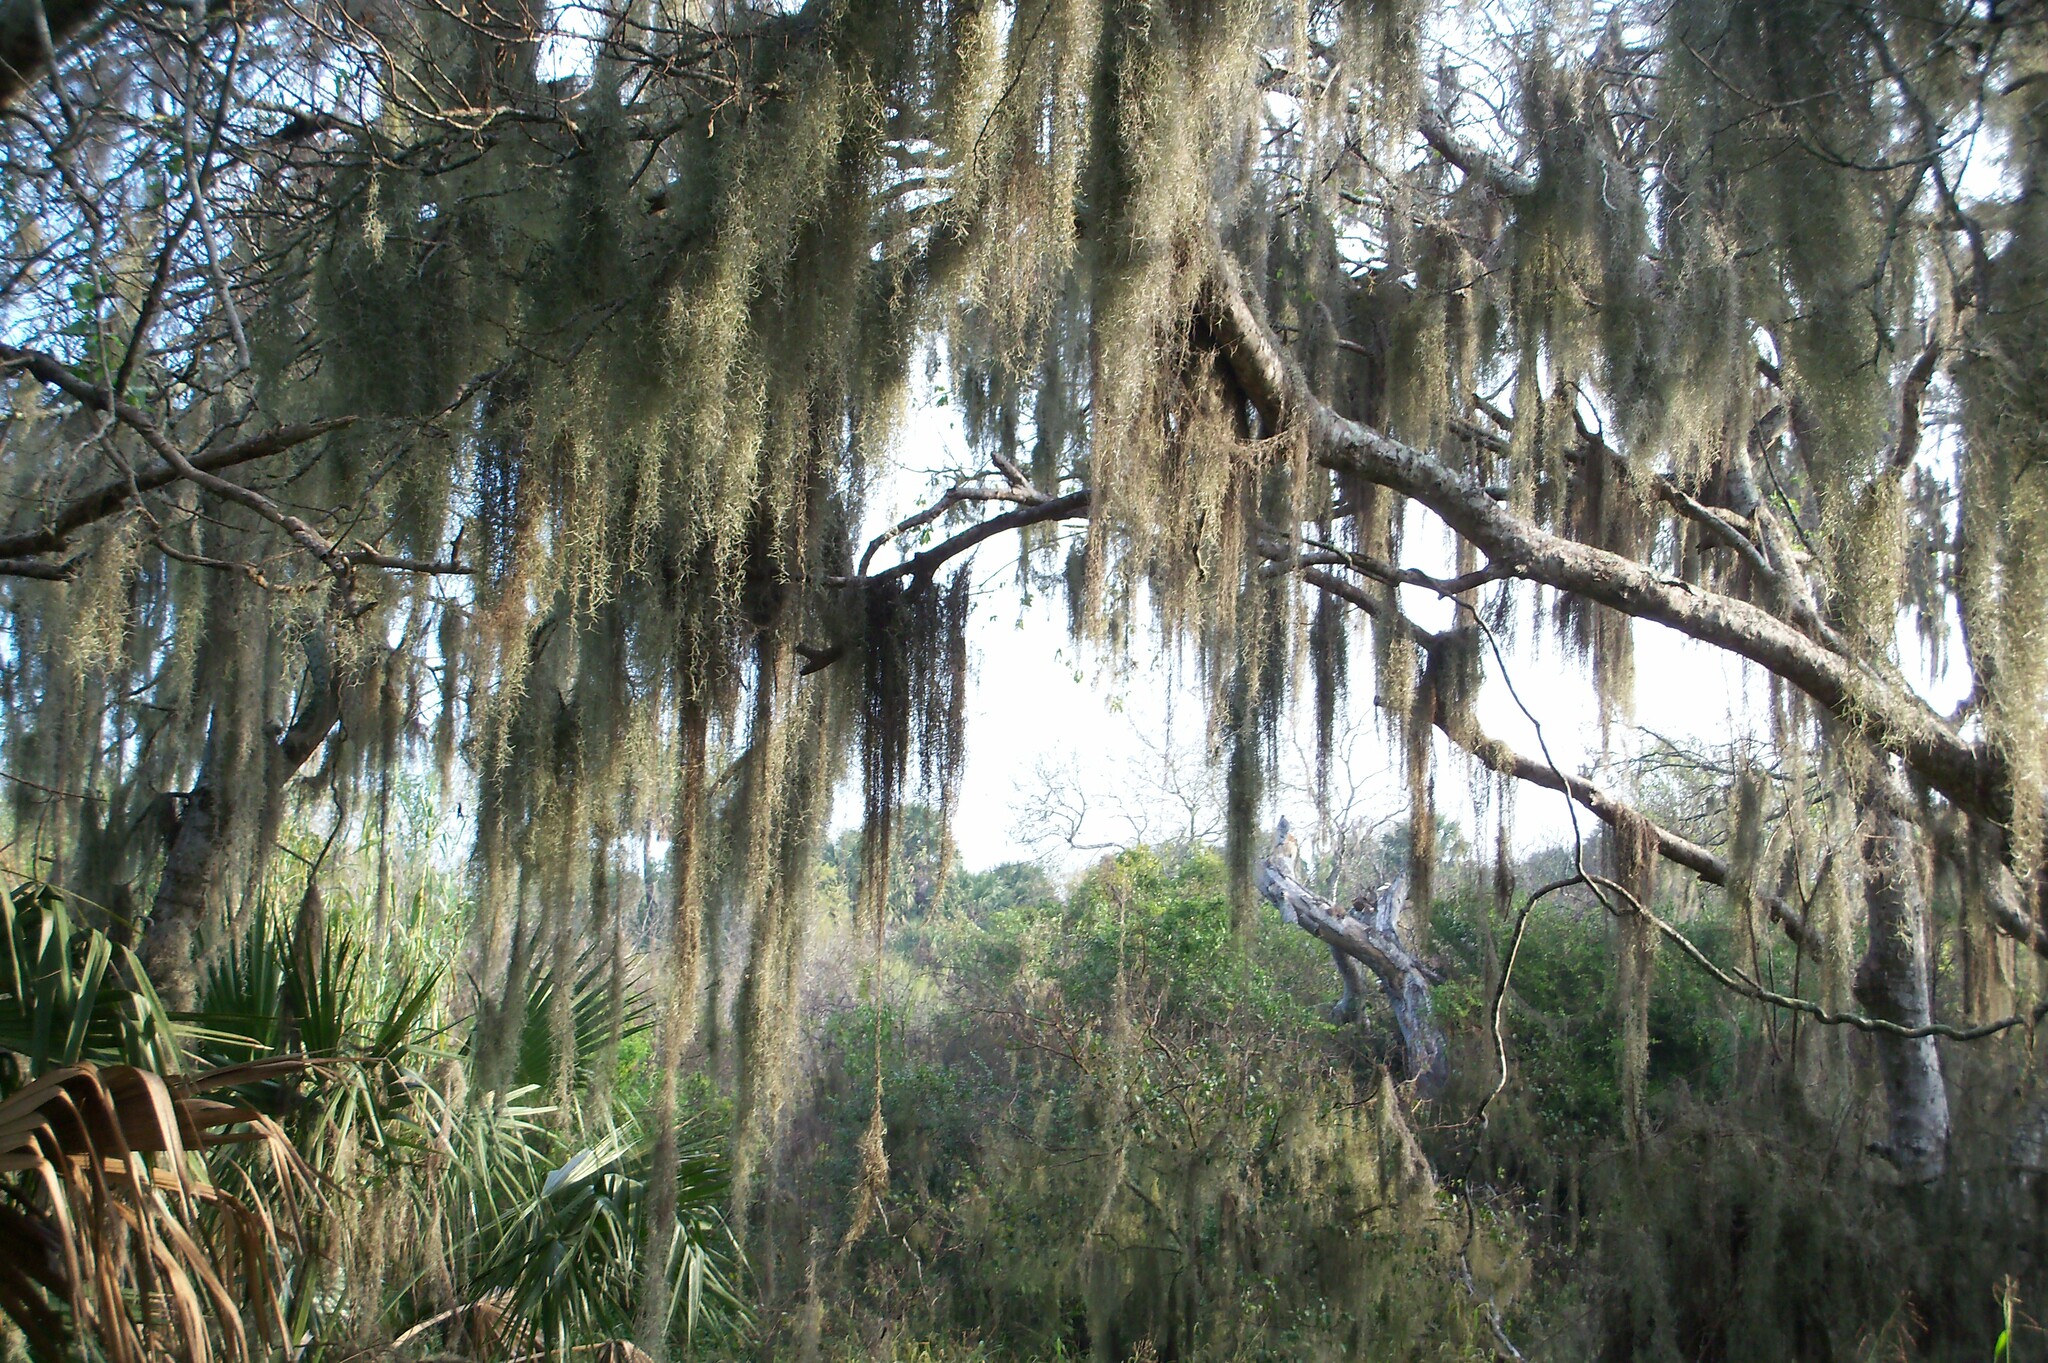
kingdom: Plantae
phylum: Tracheophyta
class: Liliopsida
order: Poales
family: Bromeliaceae
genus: Tillandsia
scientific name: Tillandsia usneoides
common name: Spanish moss
